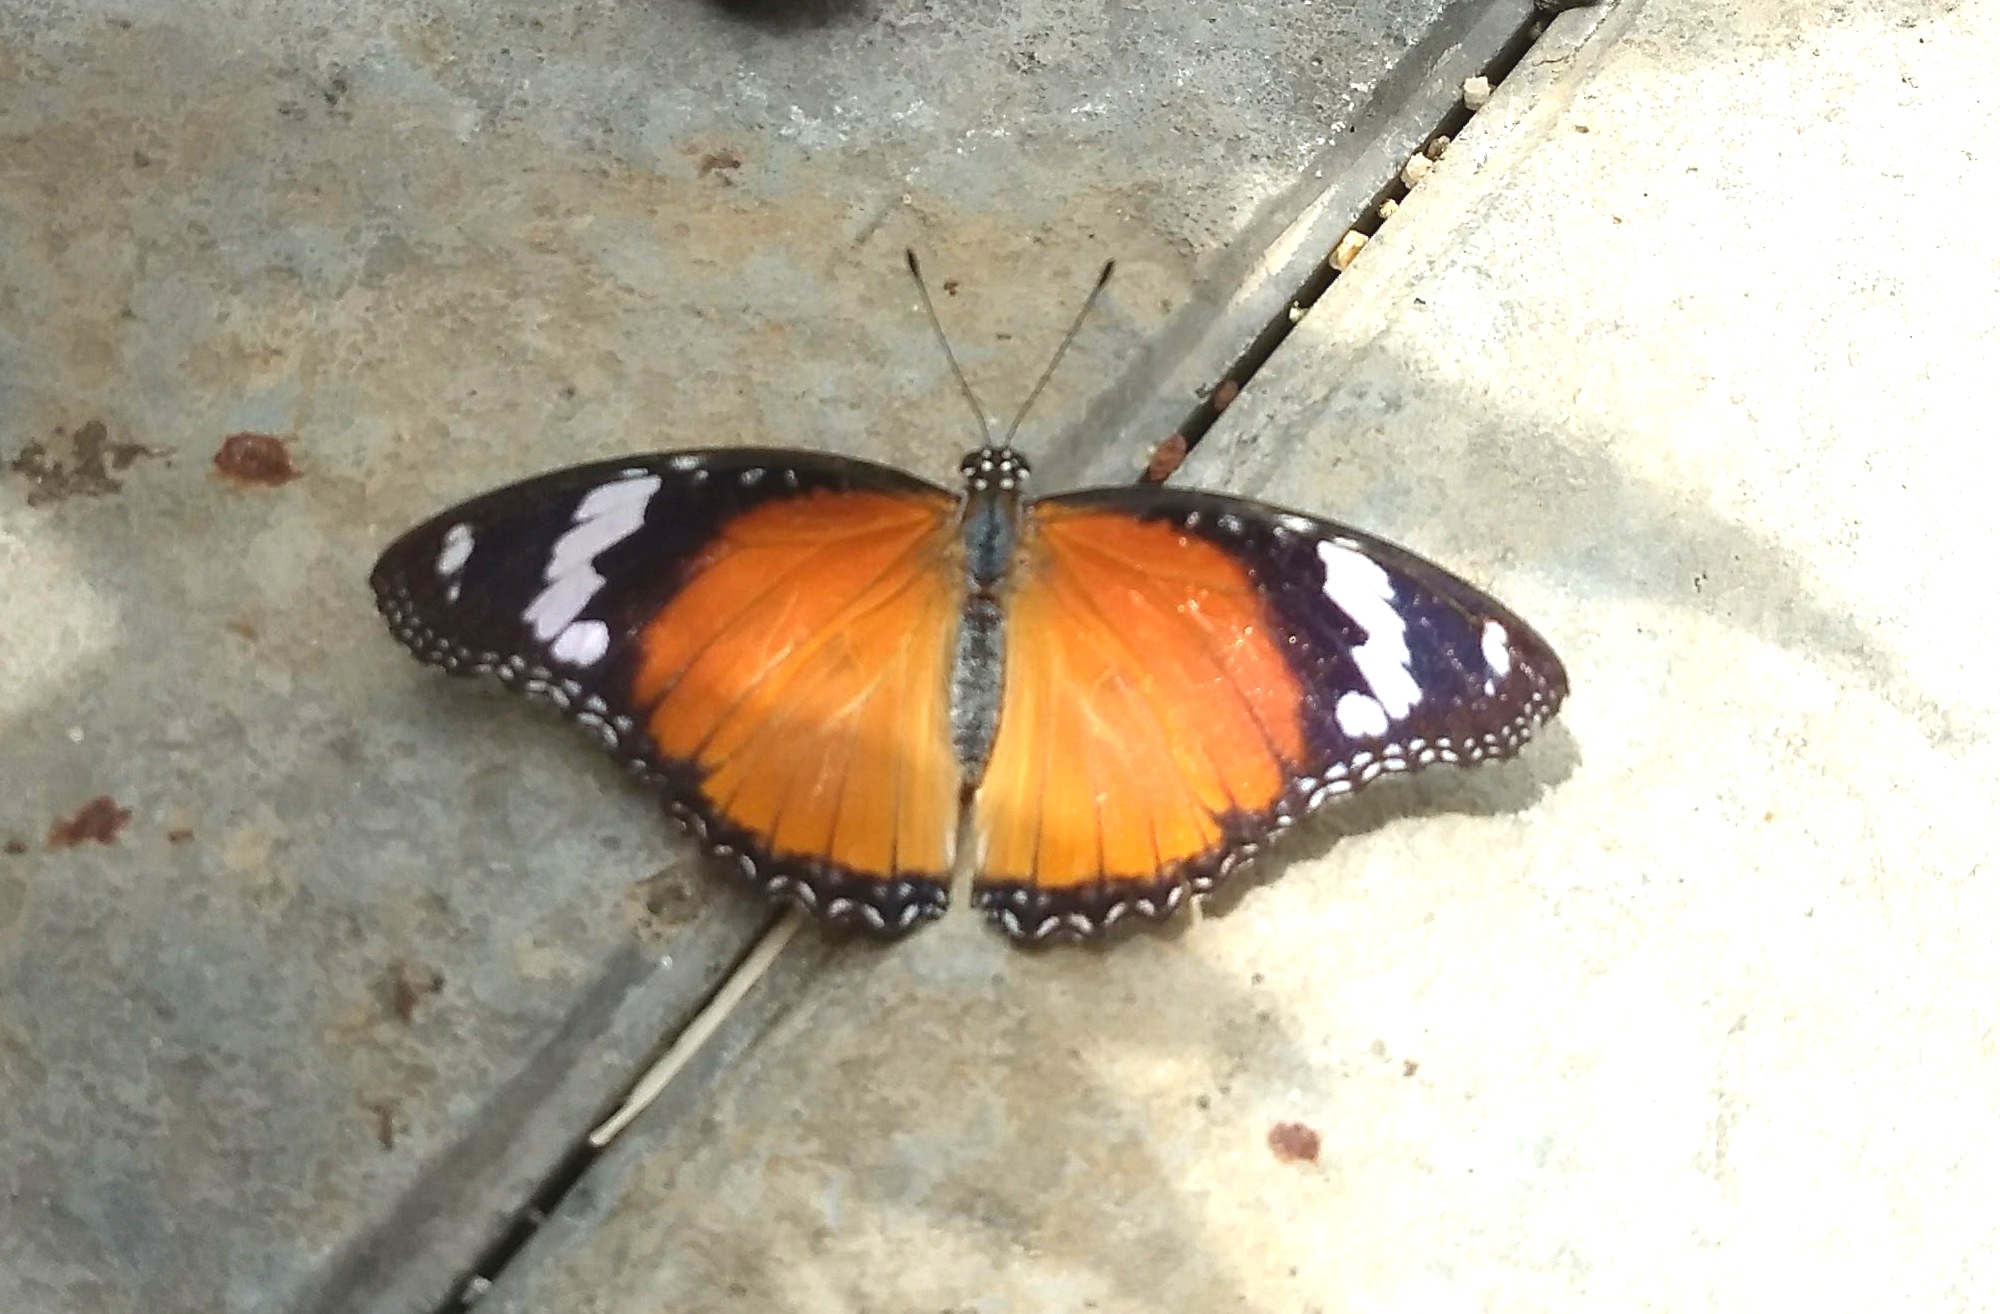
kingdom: Animalia
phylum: Arthropoda
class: Insecta
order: Lepidoptera
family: Nymphalidae
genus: Hypolimnas
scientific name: Hypolimnas misippus
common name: False plain tiger
